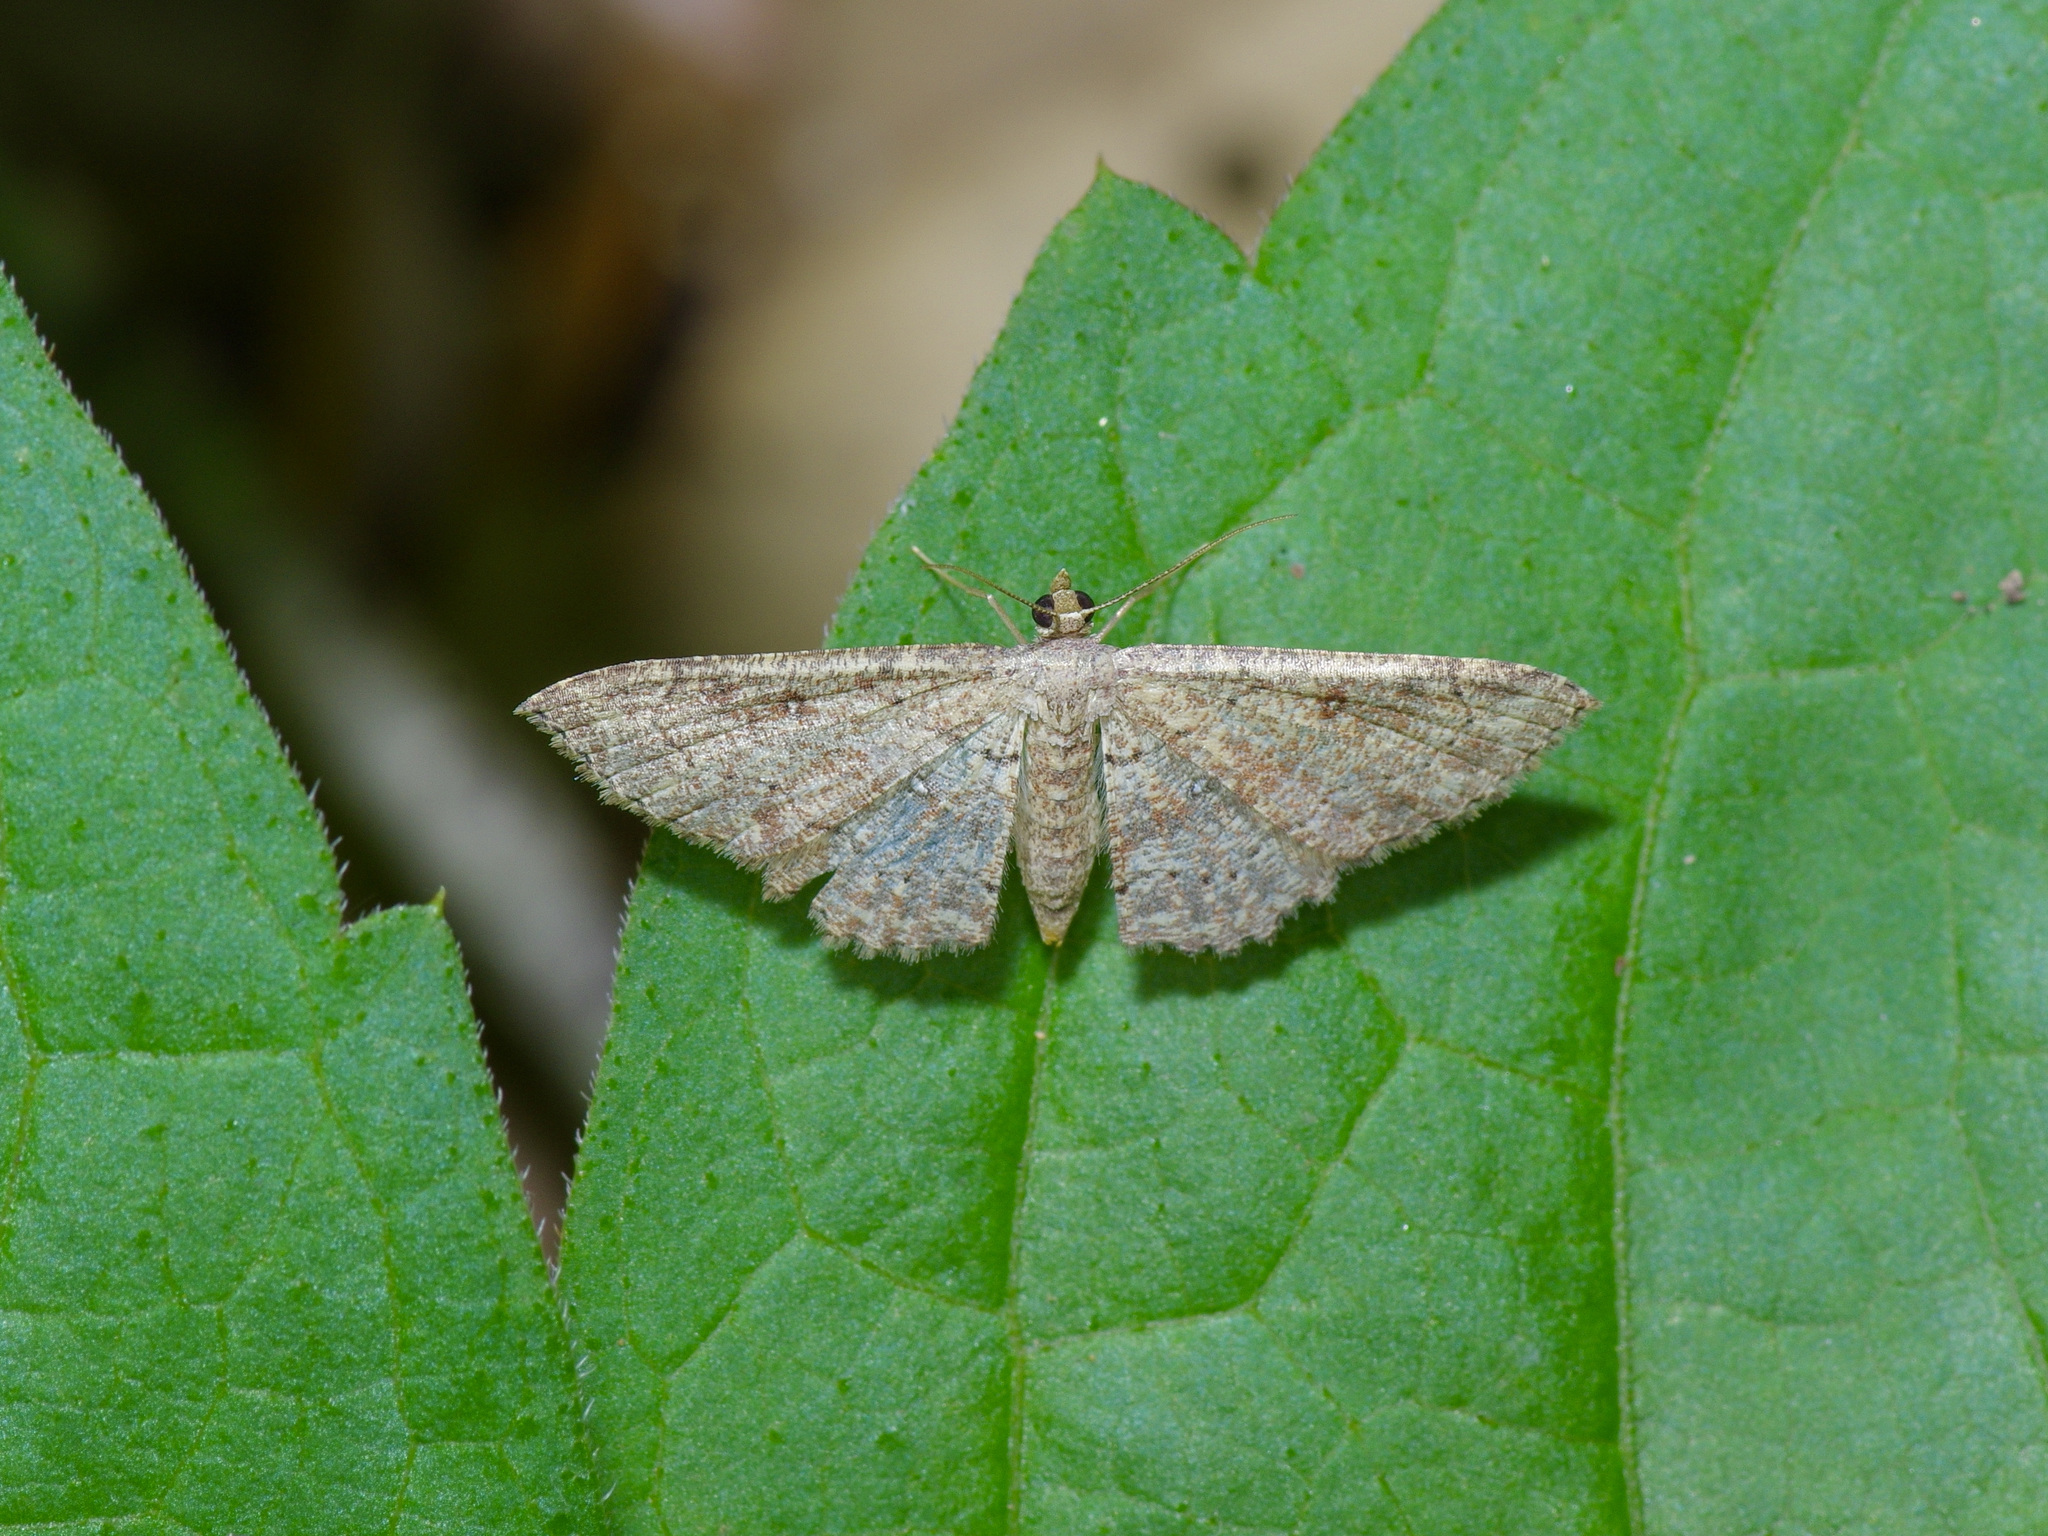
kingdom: Animalia
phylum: Arthropoda
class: Insecta
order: Lepidoptera
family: Geometridae
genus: Cyclophora
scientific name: Cyclophora nanaria
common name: Cankerworm
